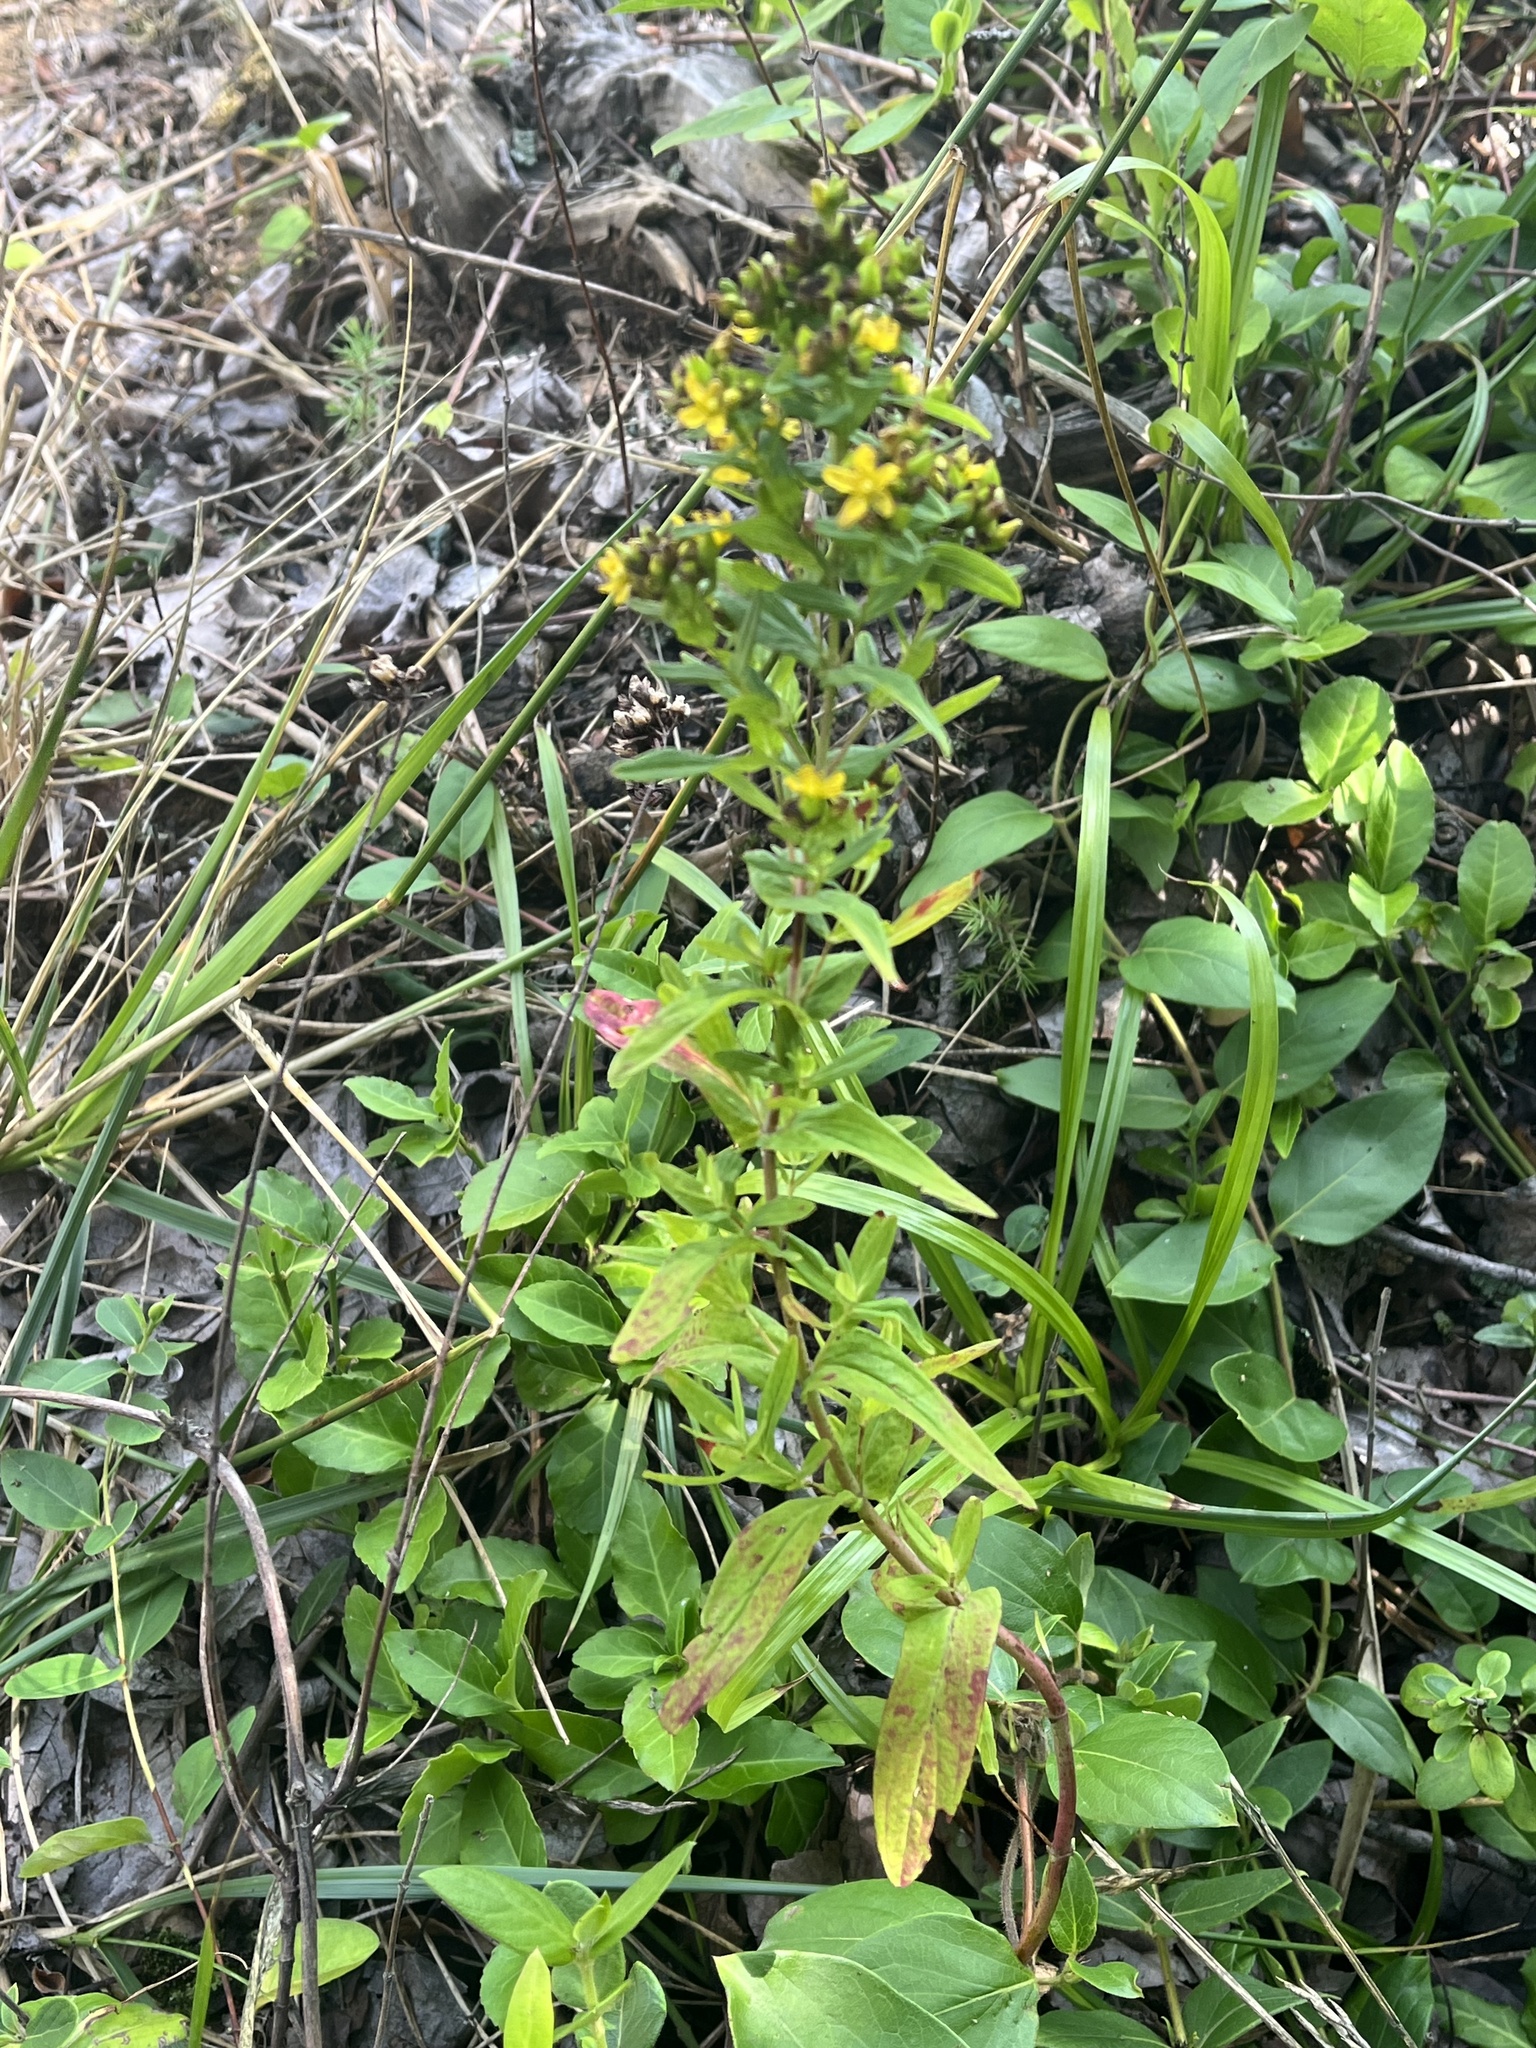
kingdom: Plantae
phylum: Tracheophyta
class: Magnoliopsida
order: Malpighiales
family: Hypericaceae
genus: Hypericum
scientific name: Hypericum punctatum
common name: Spotted st. john's-wort
